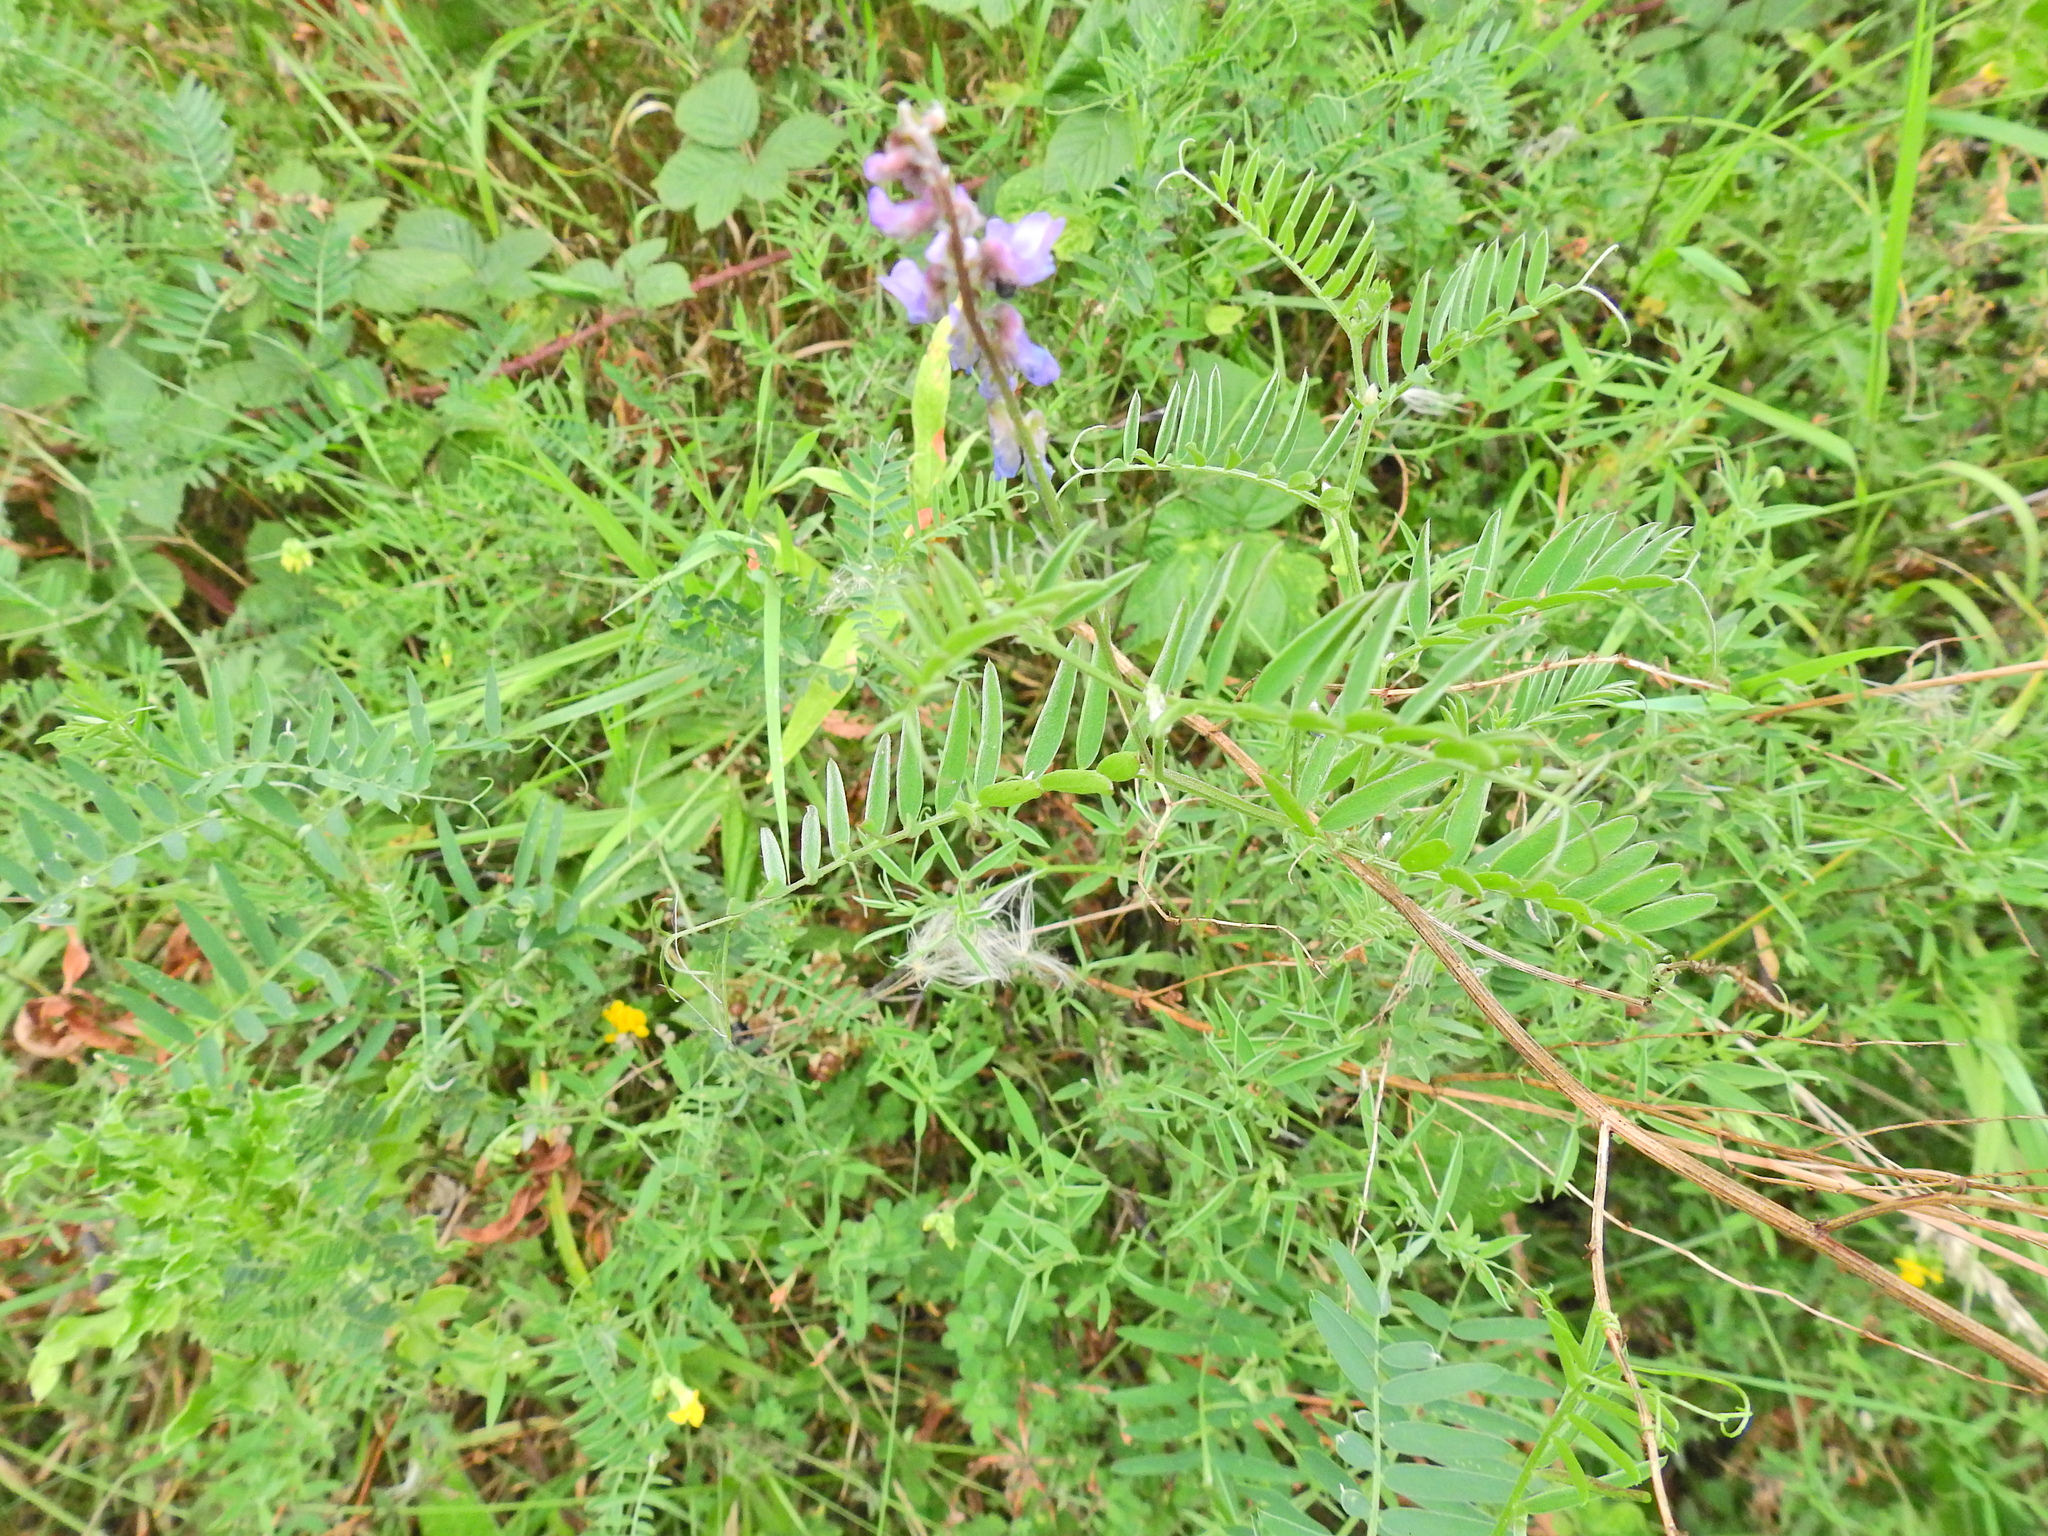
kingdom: Plantae
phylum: Tracheophyta
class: Magnoliopsida
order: Fabales
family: Fabaceae
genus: Vicia
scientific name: Vicia cracca
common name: Bird vetch
